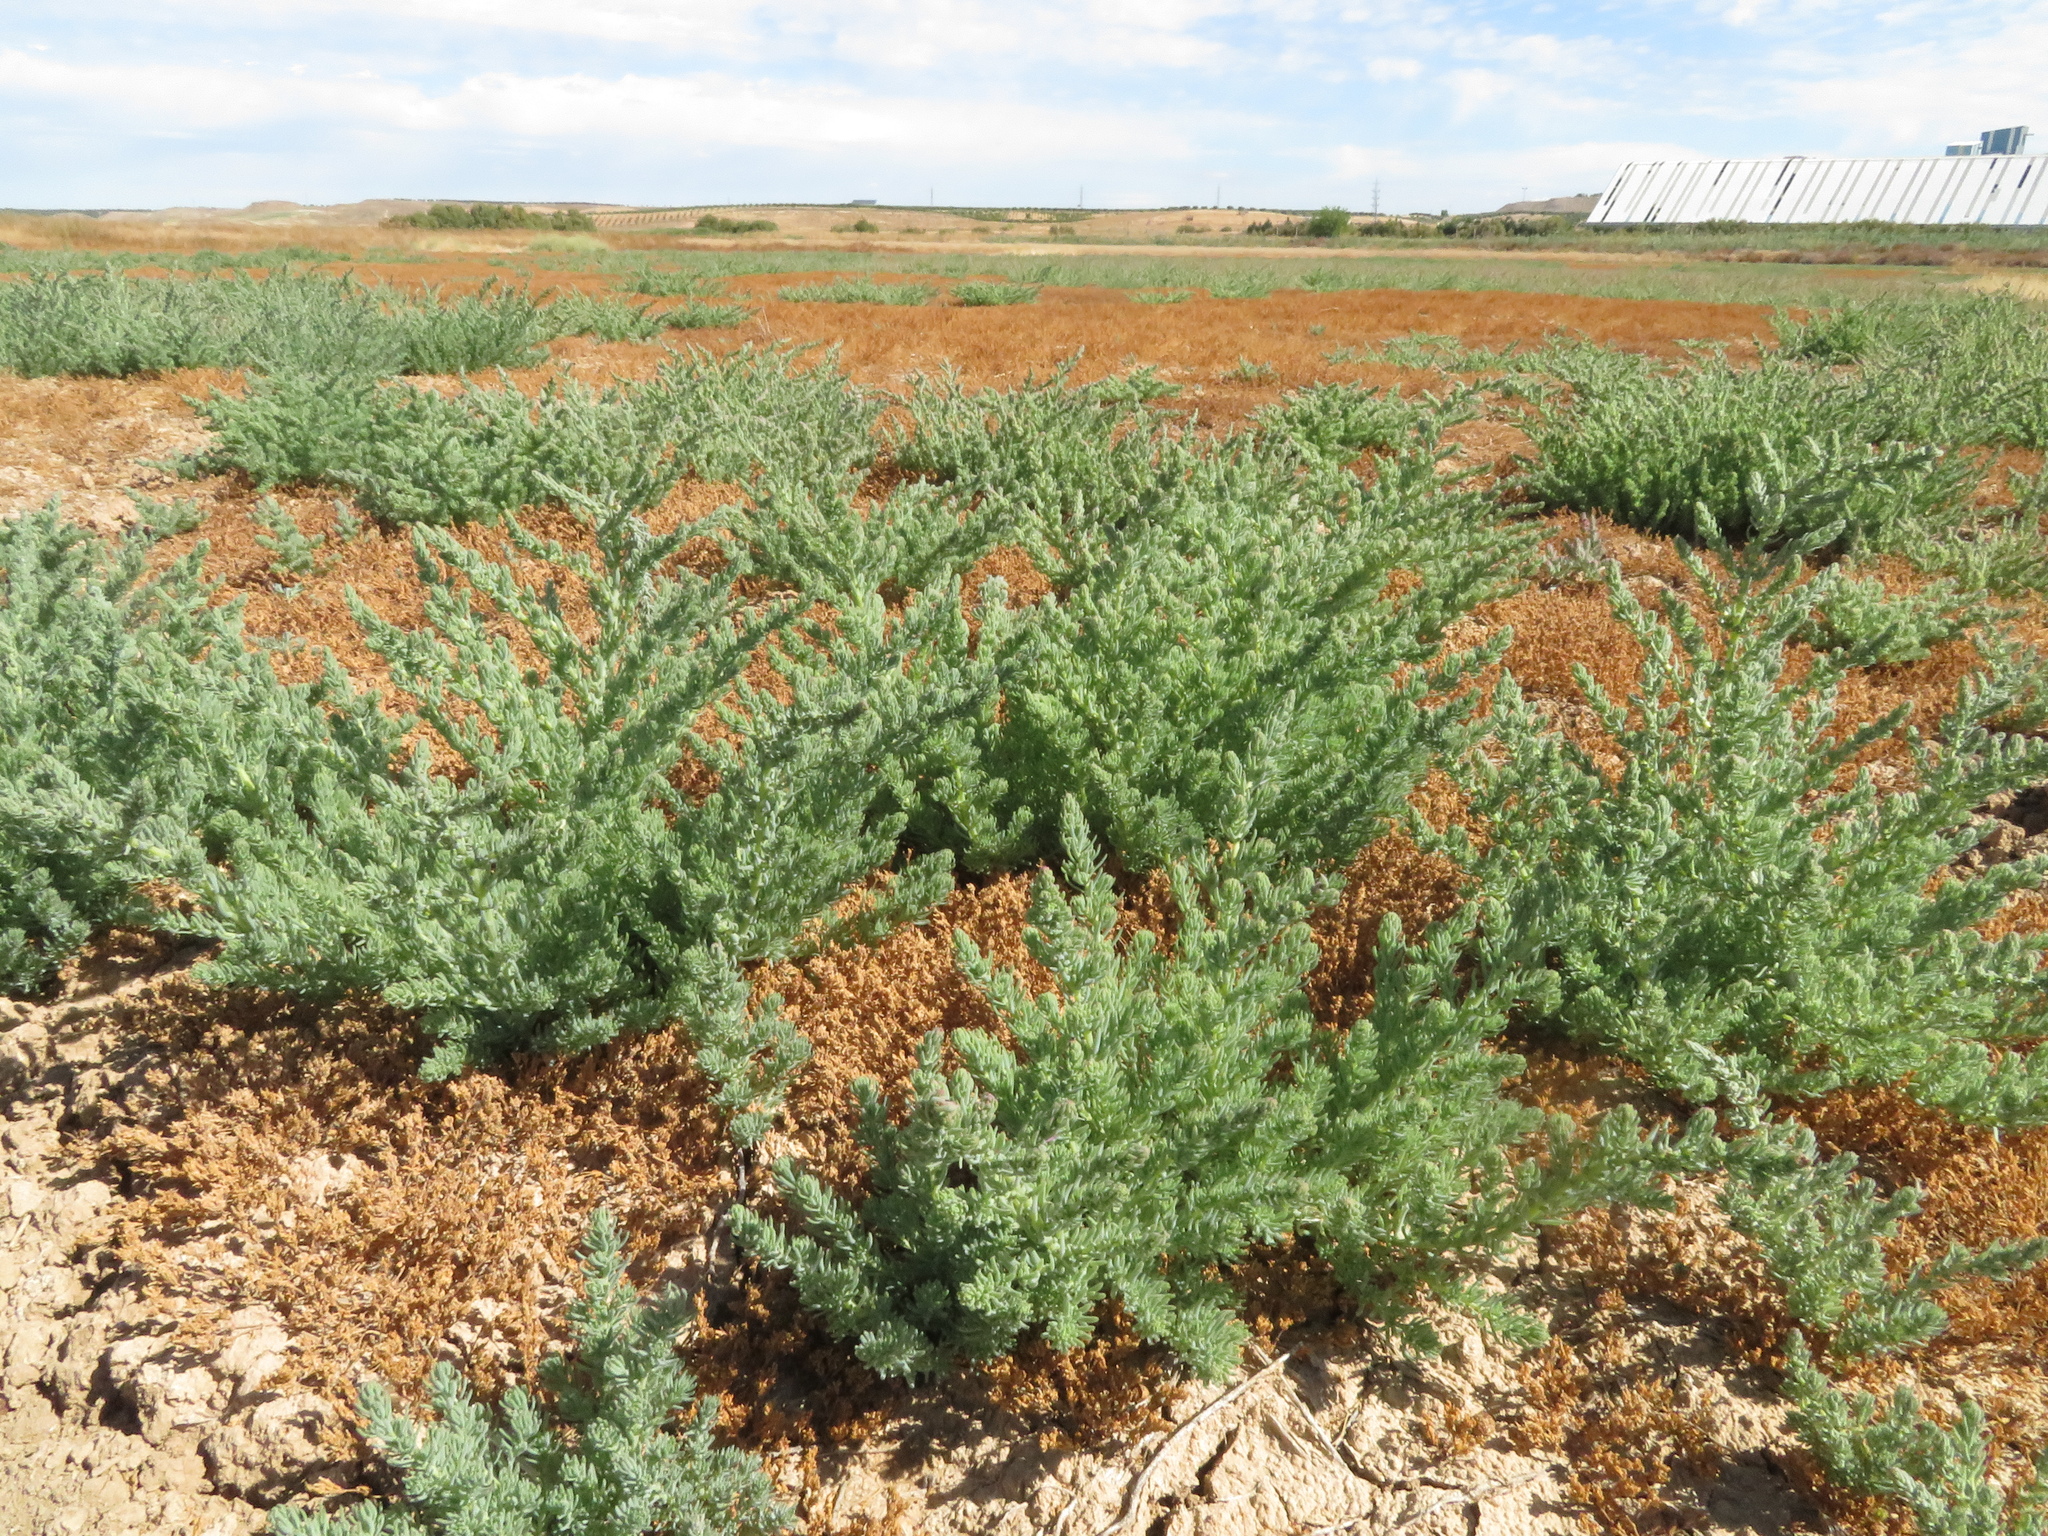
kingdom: Plantae
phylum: Tracheophyta
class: Magnoliopsida
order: Caryophyllales
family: Amaranthaceae
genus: Suaeda
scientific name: Suaeda splendens
